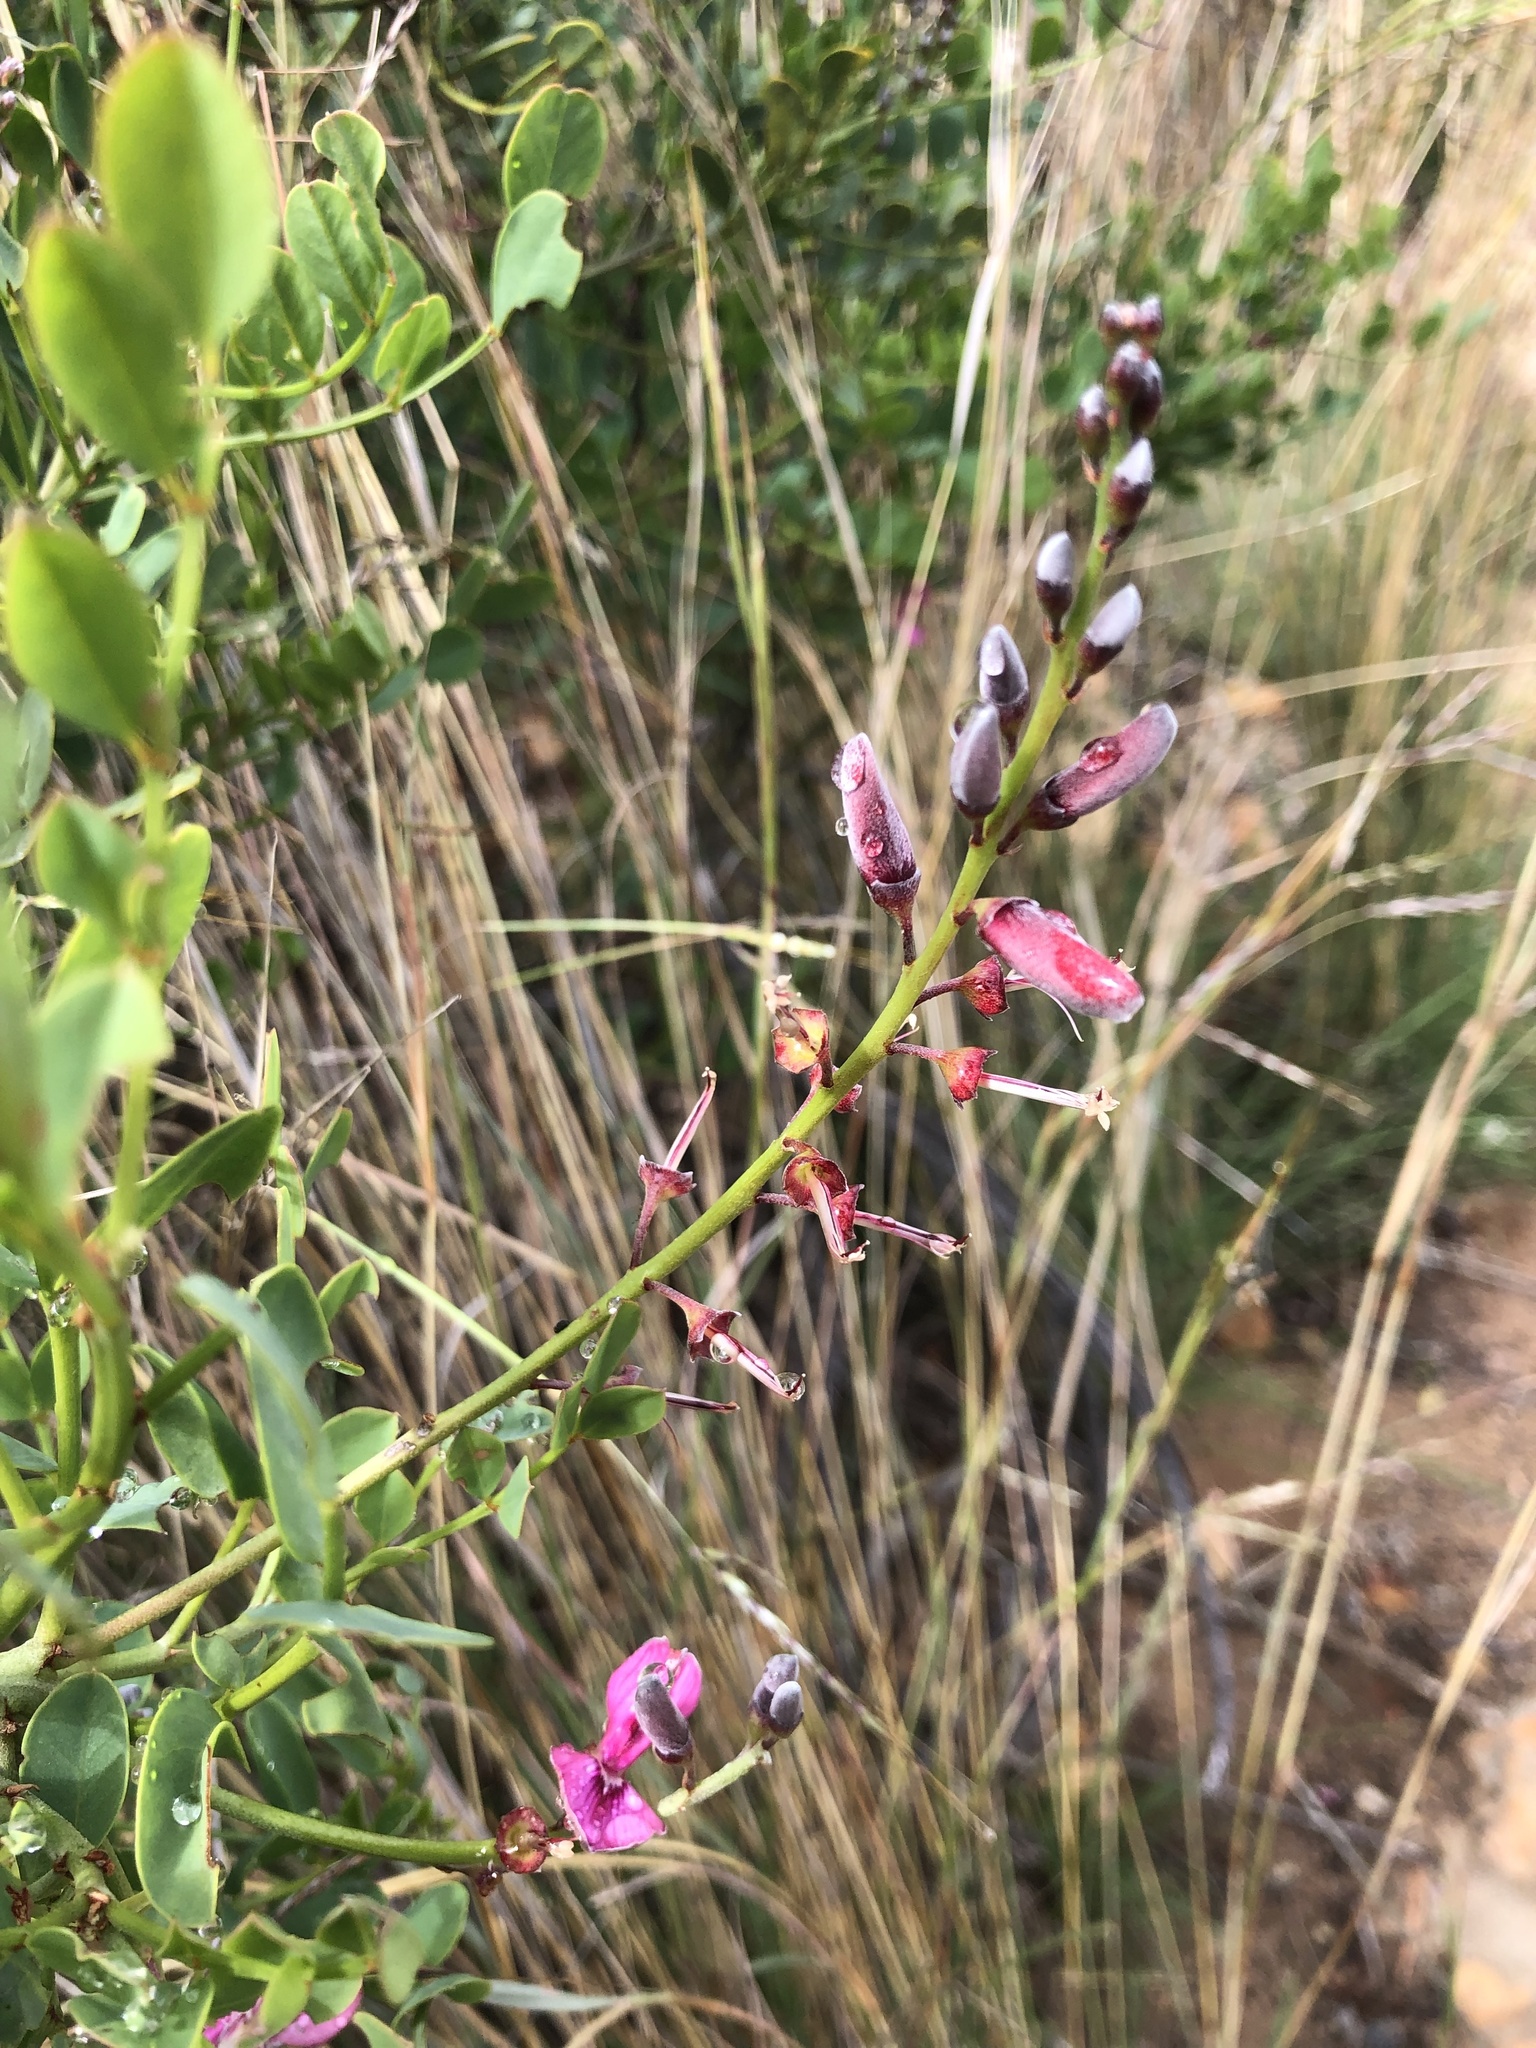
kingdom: Plantae
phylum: Tracheophyta
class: Magnoliopsida
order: Fabales
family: Fabaceae
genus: Indigofera
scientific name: Indigofera frutescens
